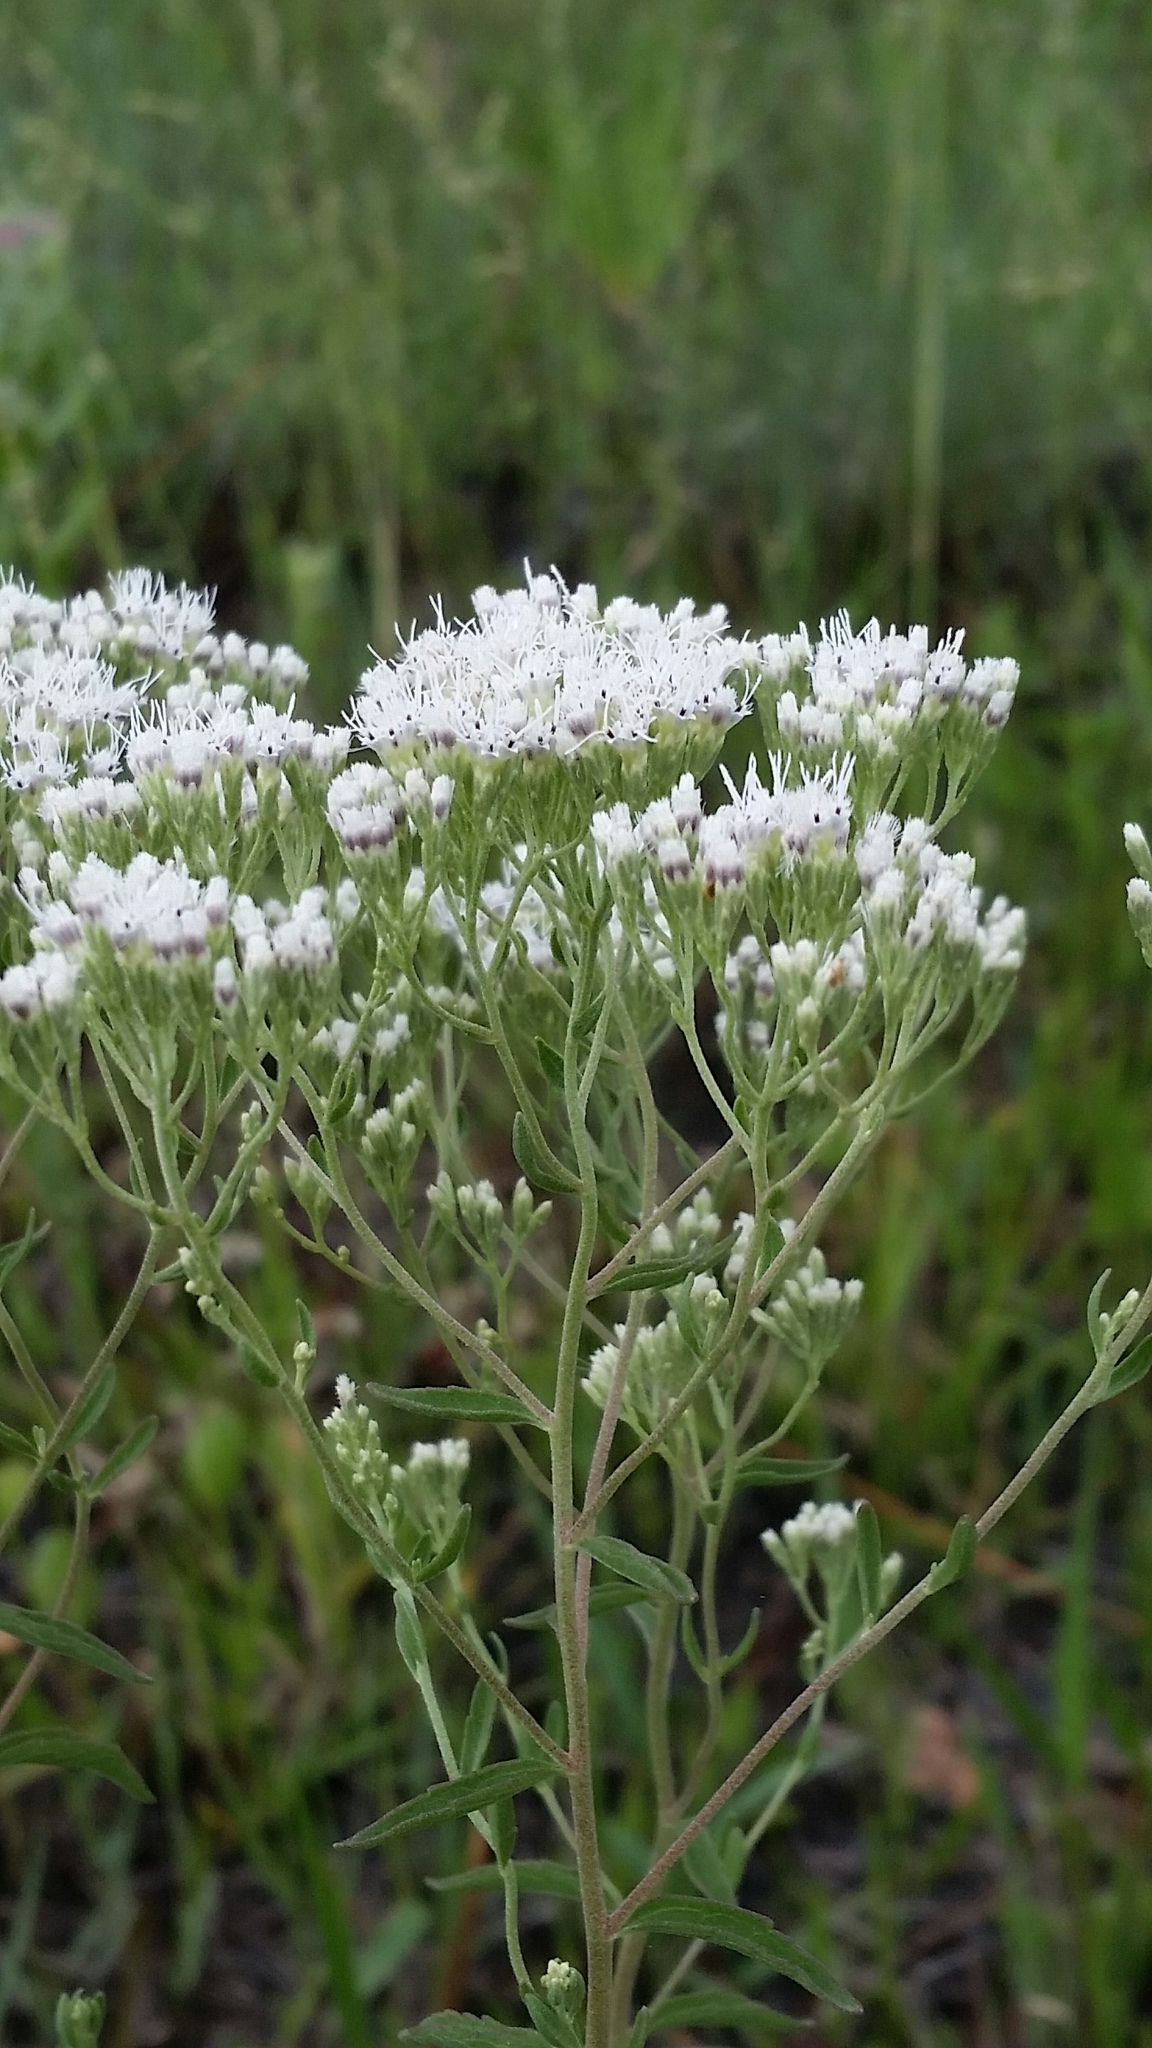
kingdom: Plantae
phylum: Tracheophyta
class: Magnoliopsida
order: Asterales
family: Asteraceae
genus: Eupatorium
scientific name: Eupatorium mohrii
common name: Mohr's thoroughwort
